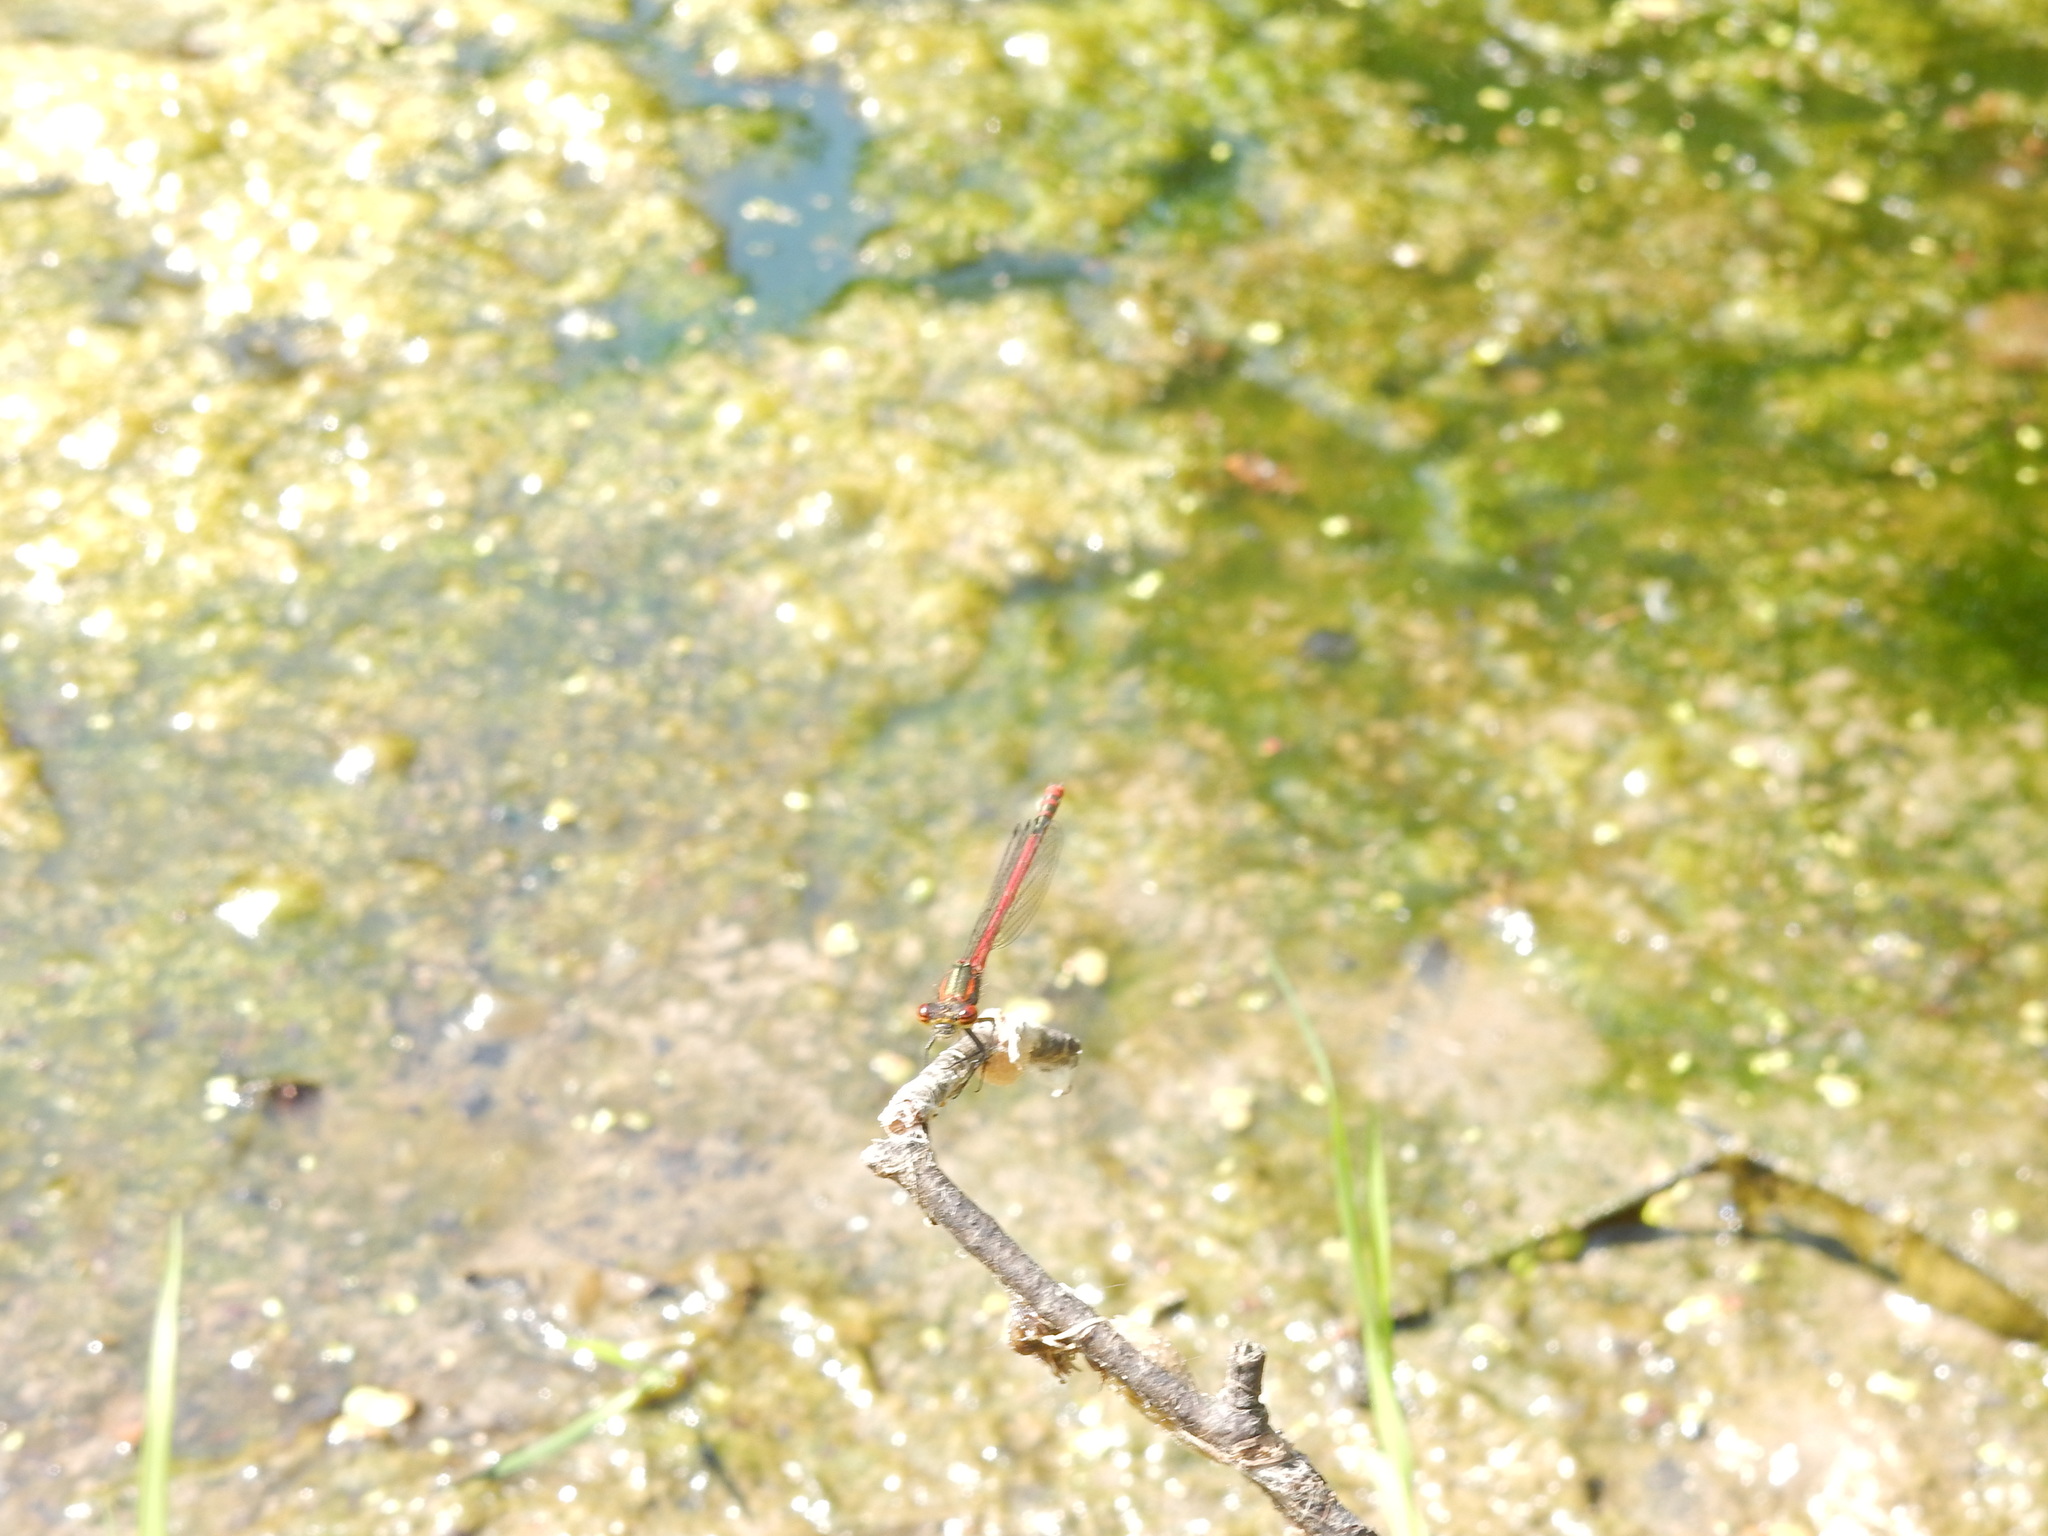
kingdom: Animalia
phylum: Arthropoda
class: Insecta
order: Odonata
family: Coenagrionidae
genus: Pyrrhosoma
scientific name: Pyrrhosoma nymphula
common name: Large red damsel
